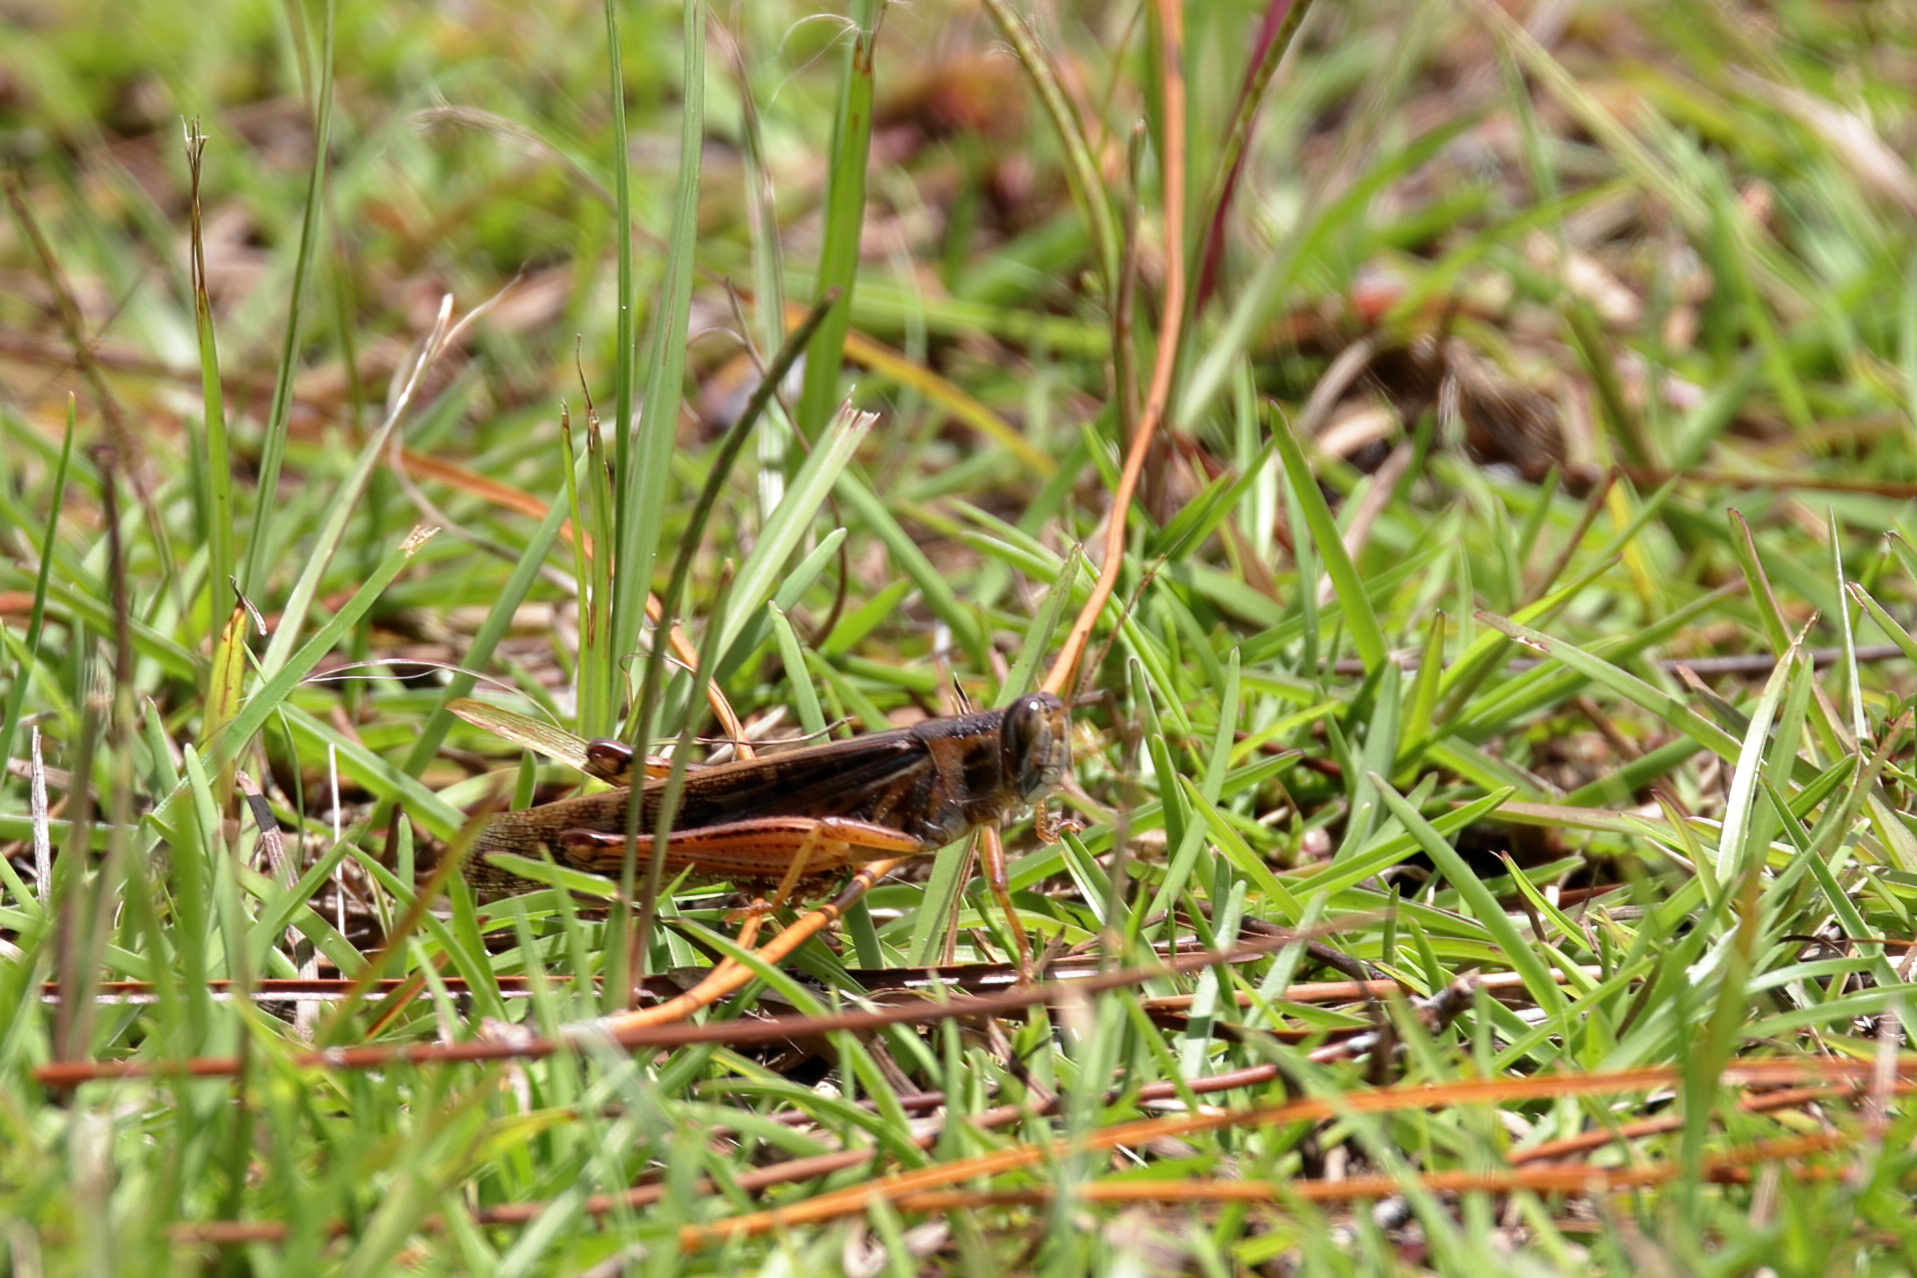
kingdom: Animalia
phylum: Arthropoda
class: Insecta
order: Orthoptera
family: Acrididae
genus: Schistocerca
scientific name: Schistocerca americana
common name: American bird locust
